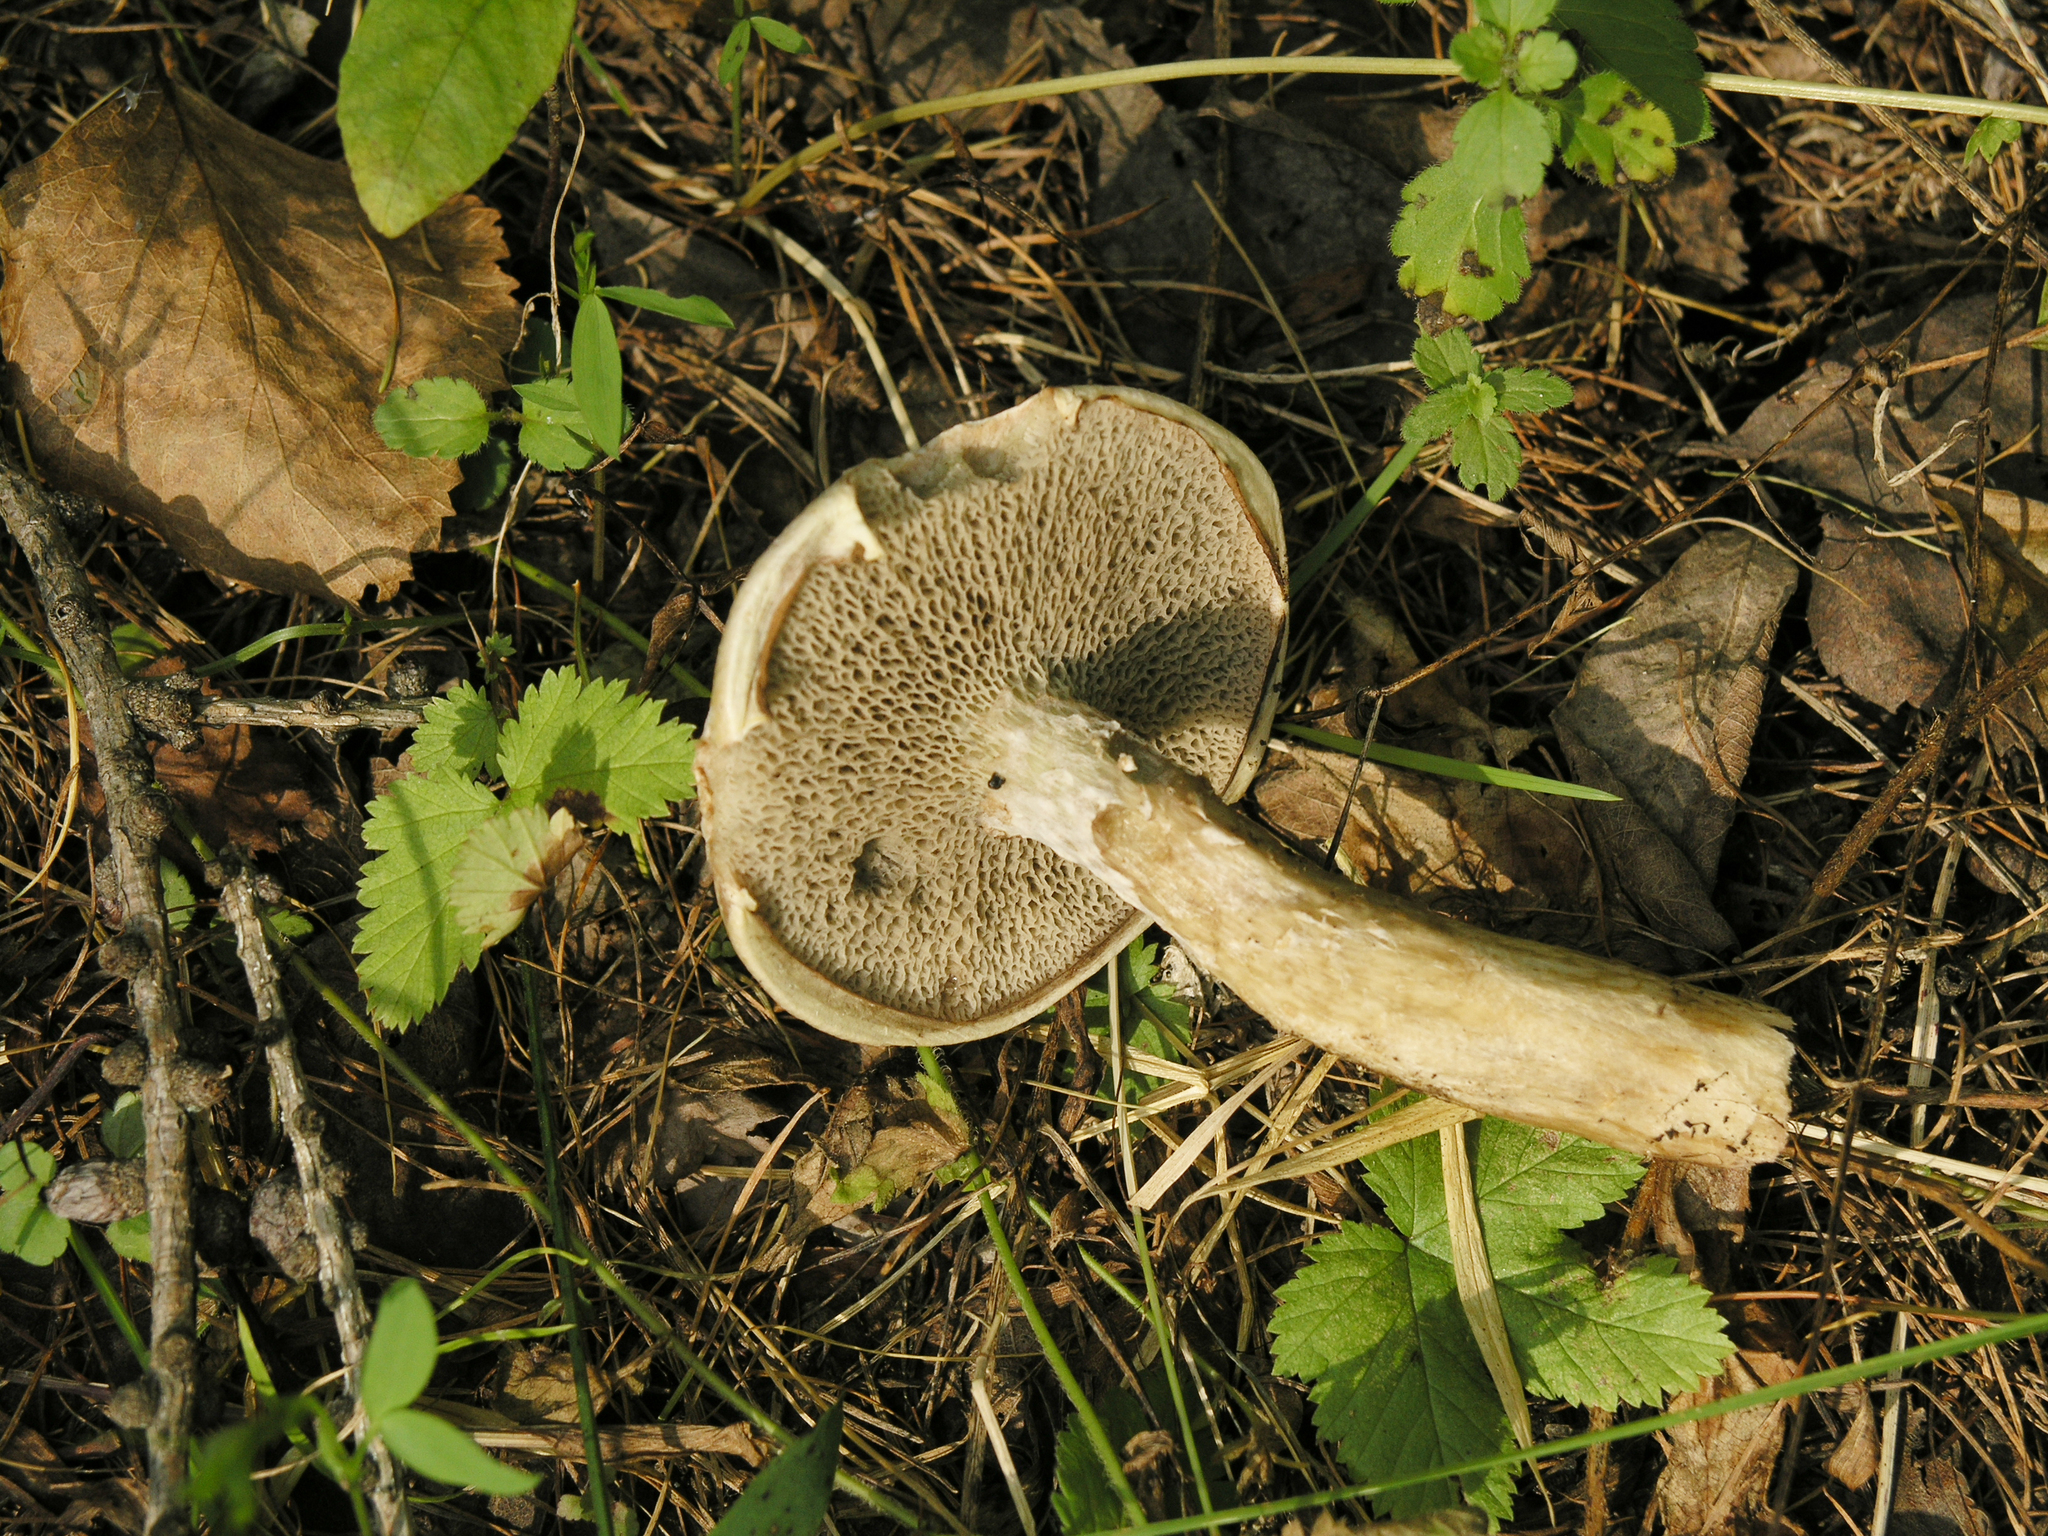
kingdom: Fungi
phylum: Basidiomycota
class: Agaricomycetes
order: Boletales
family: Suillaceae
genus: Suillus
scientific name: Suillus viscidus
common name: Sticky bolete
